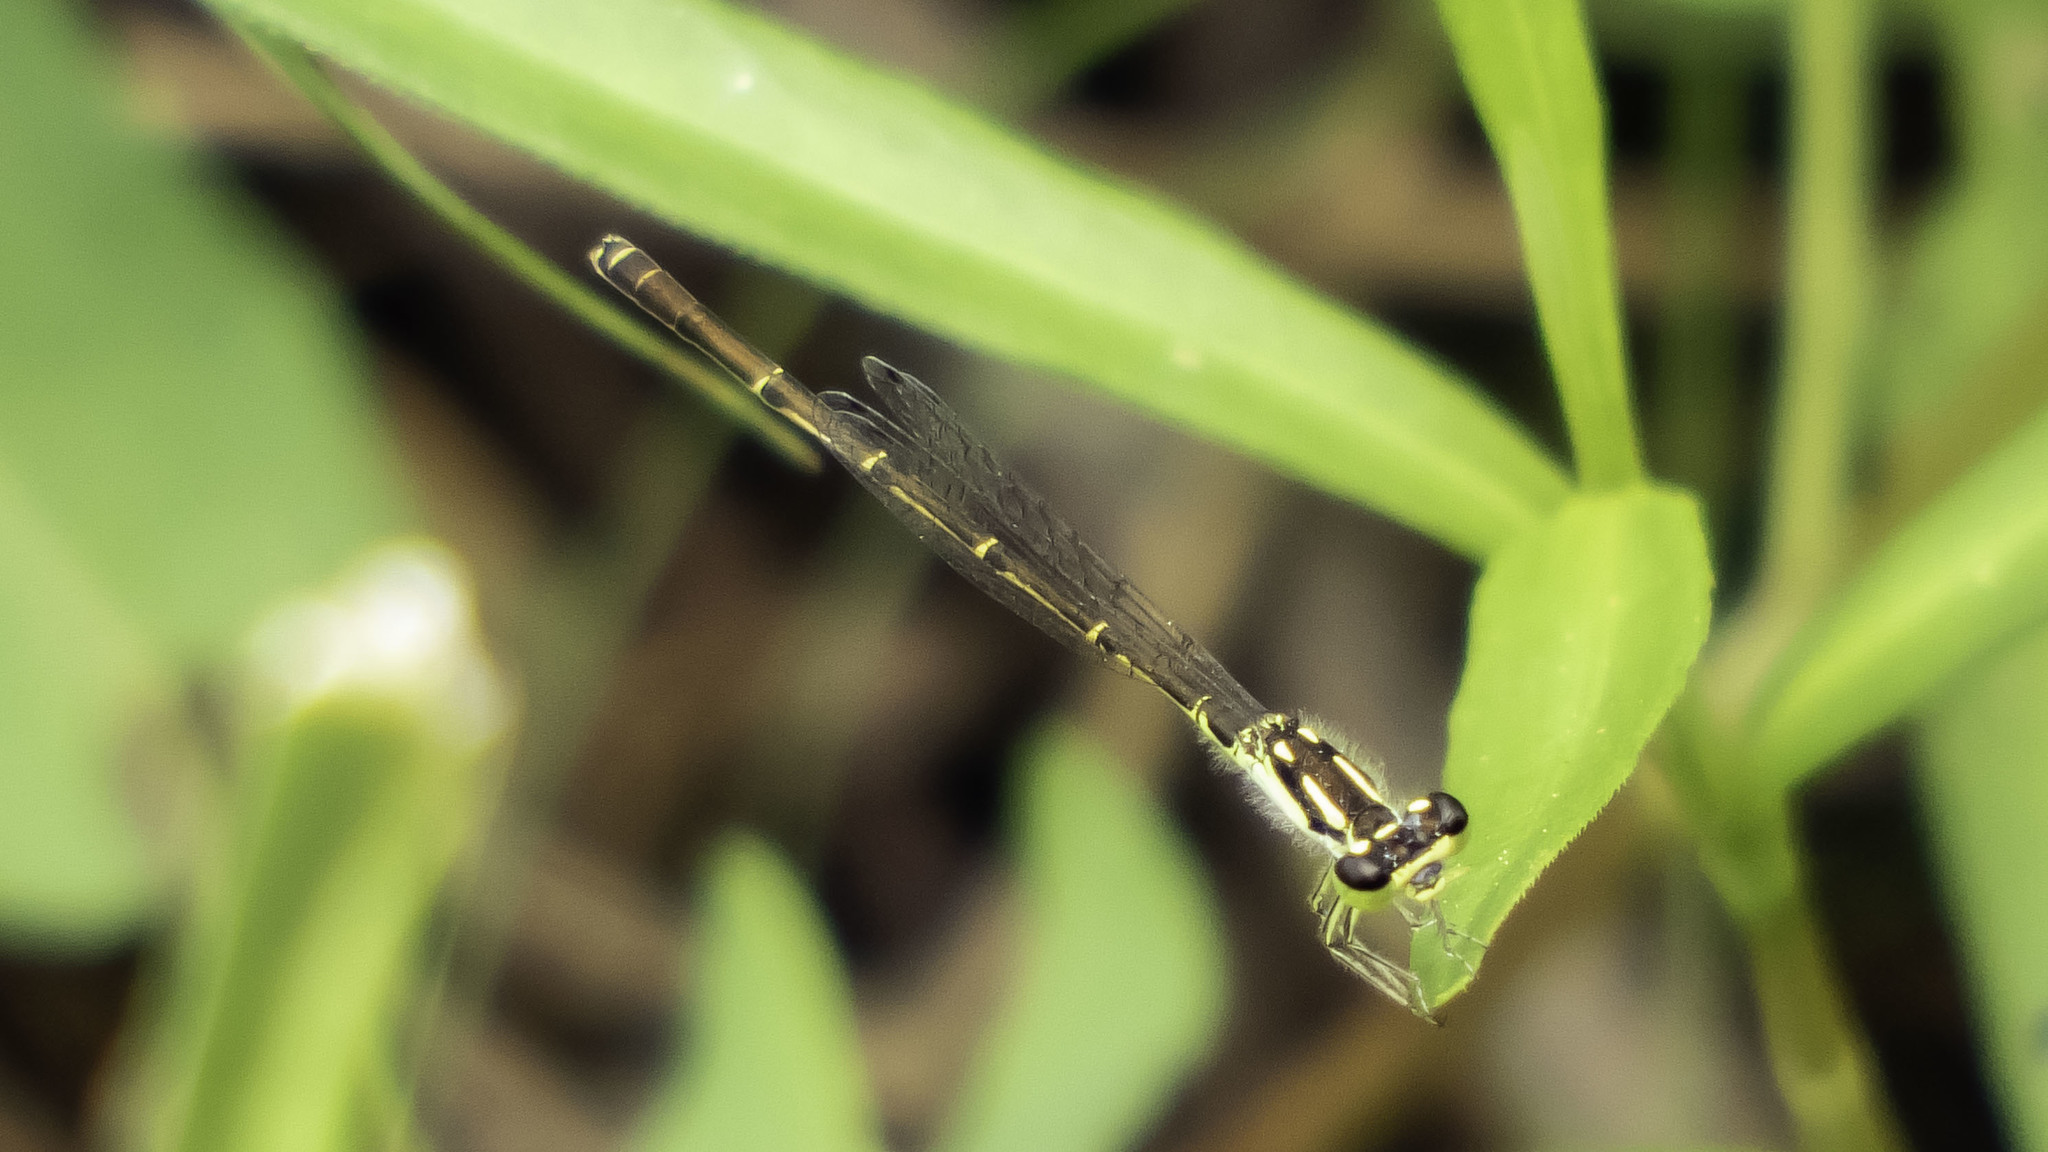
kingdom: Animalia
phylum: Arthropoda
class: Insecta
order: Odonata
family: Coenagrionidae
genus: Ischnura
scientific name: Ischnura posita
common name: Fragile forktail
